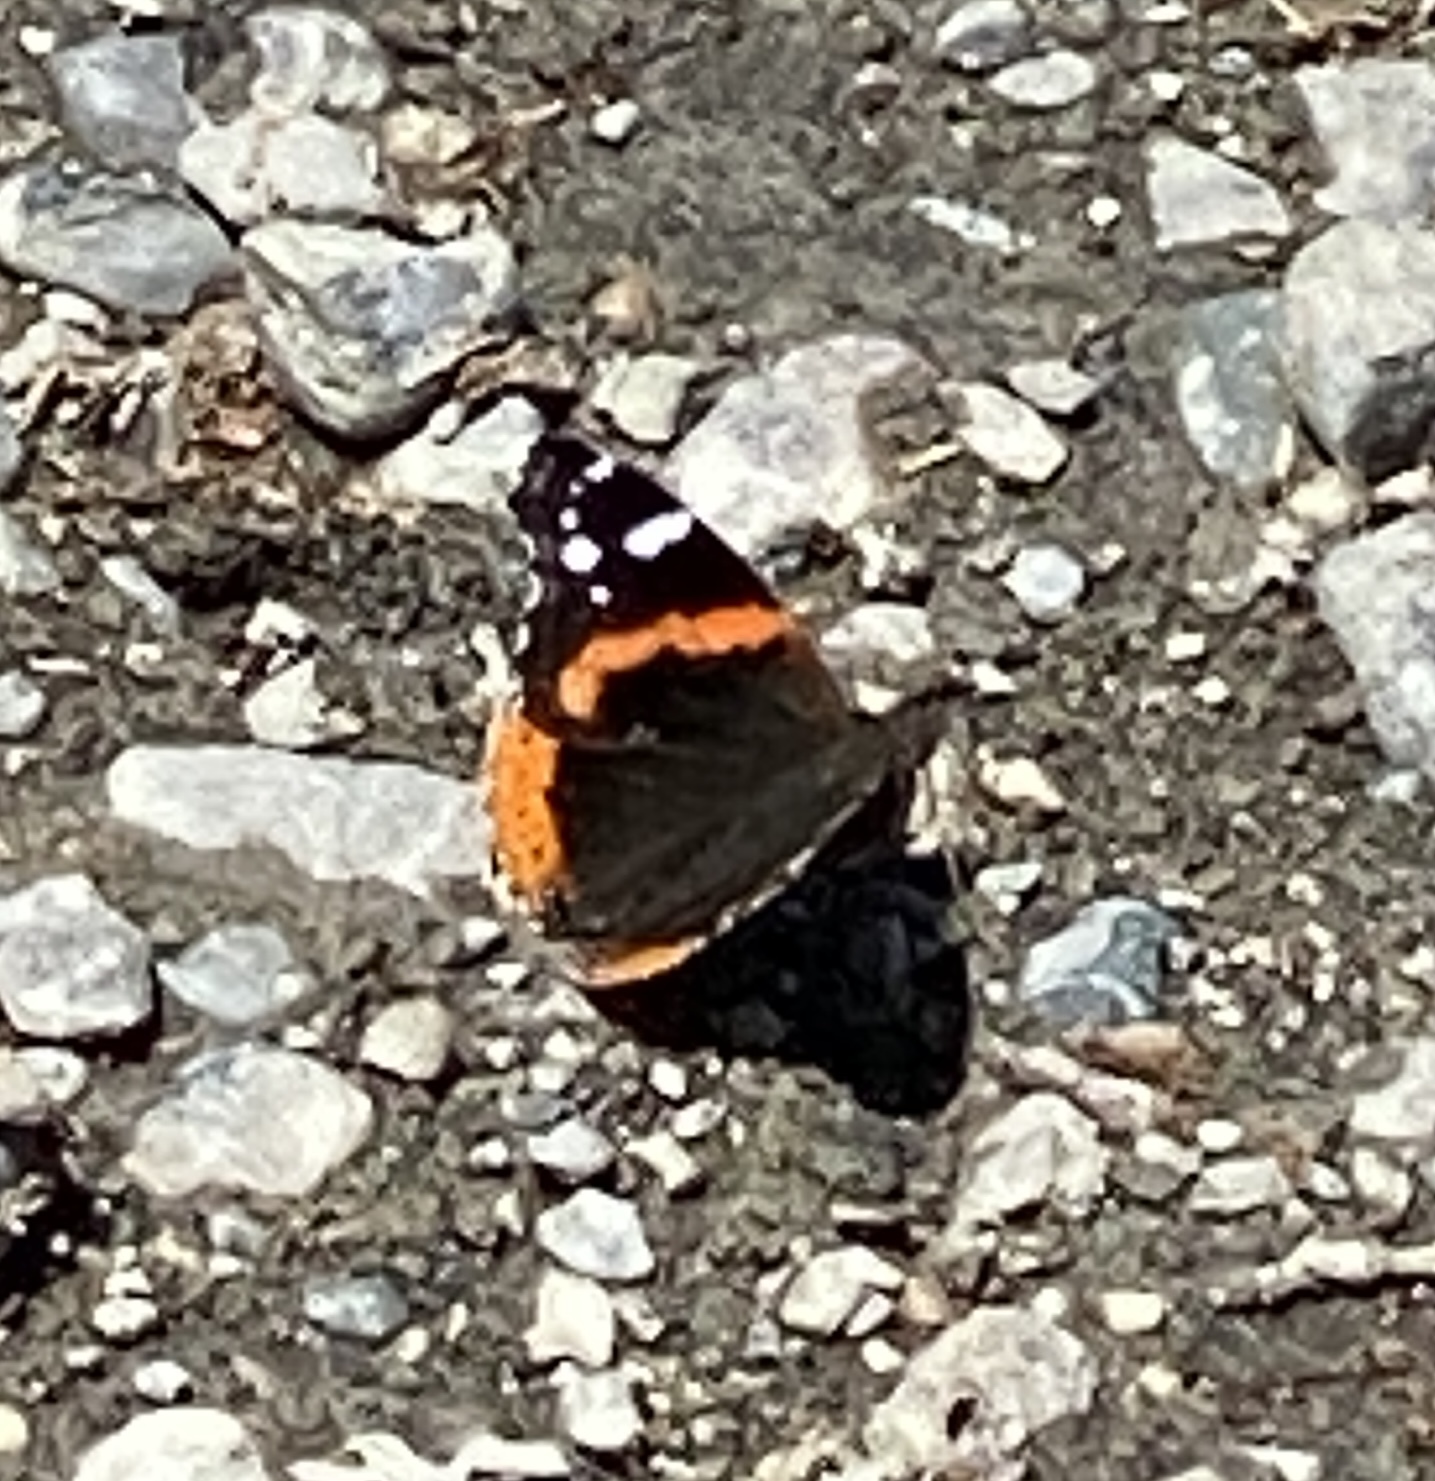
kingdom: Animalia
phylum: Arthropoda
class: Insecta
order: Lepidoptera
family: Nymphalidae
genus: Vanessa
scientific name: Vanessa atalanta
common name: Red admiral
